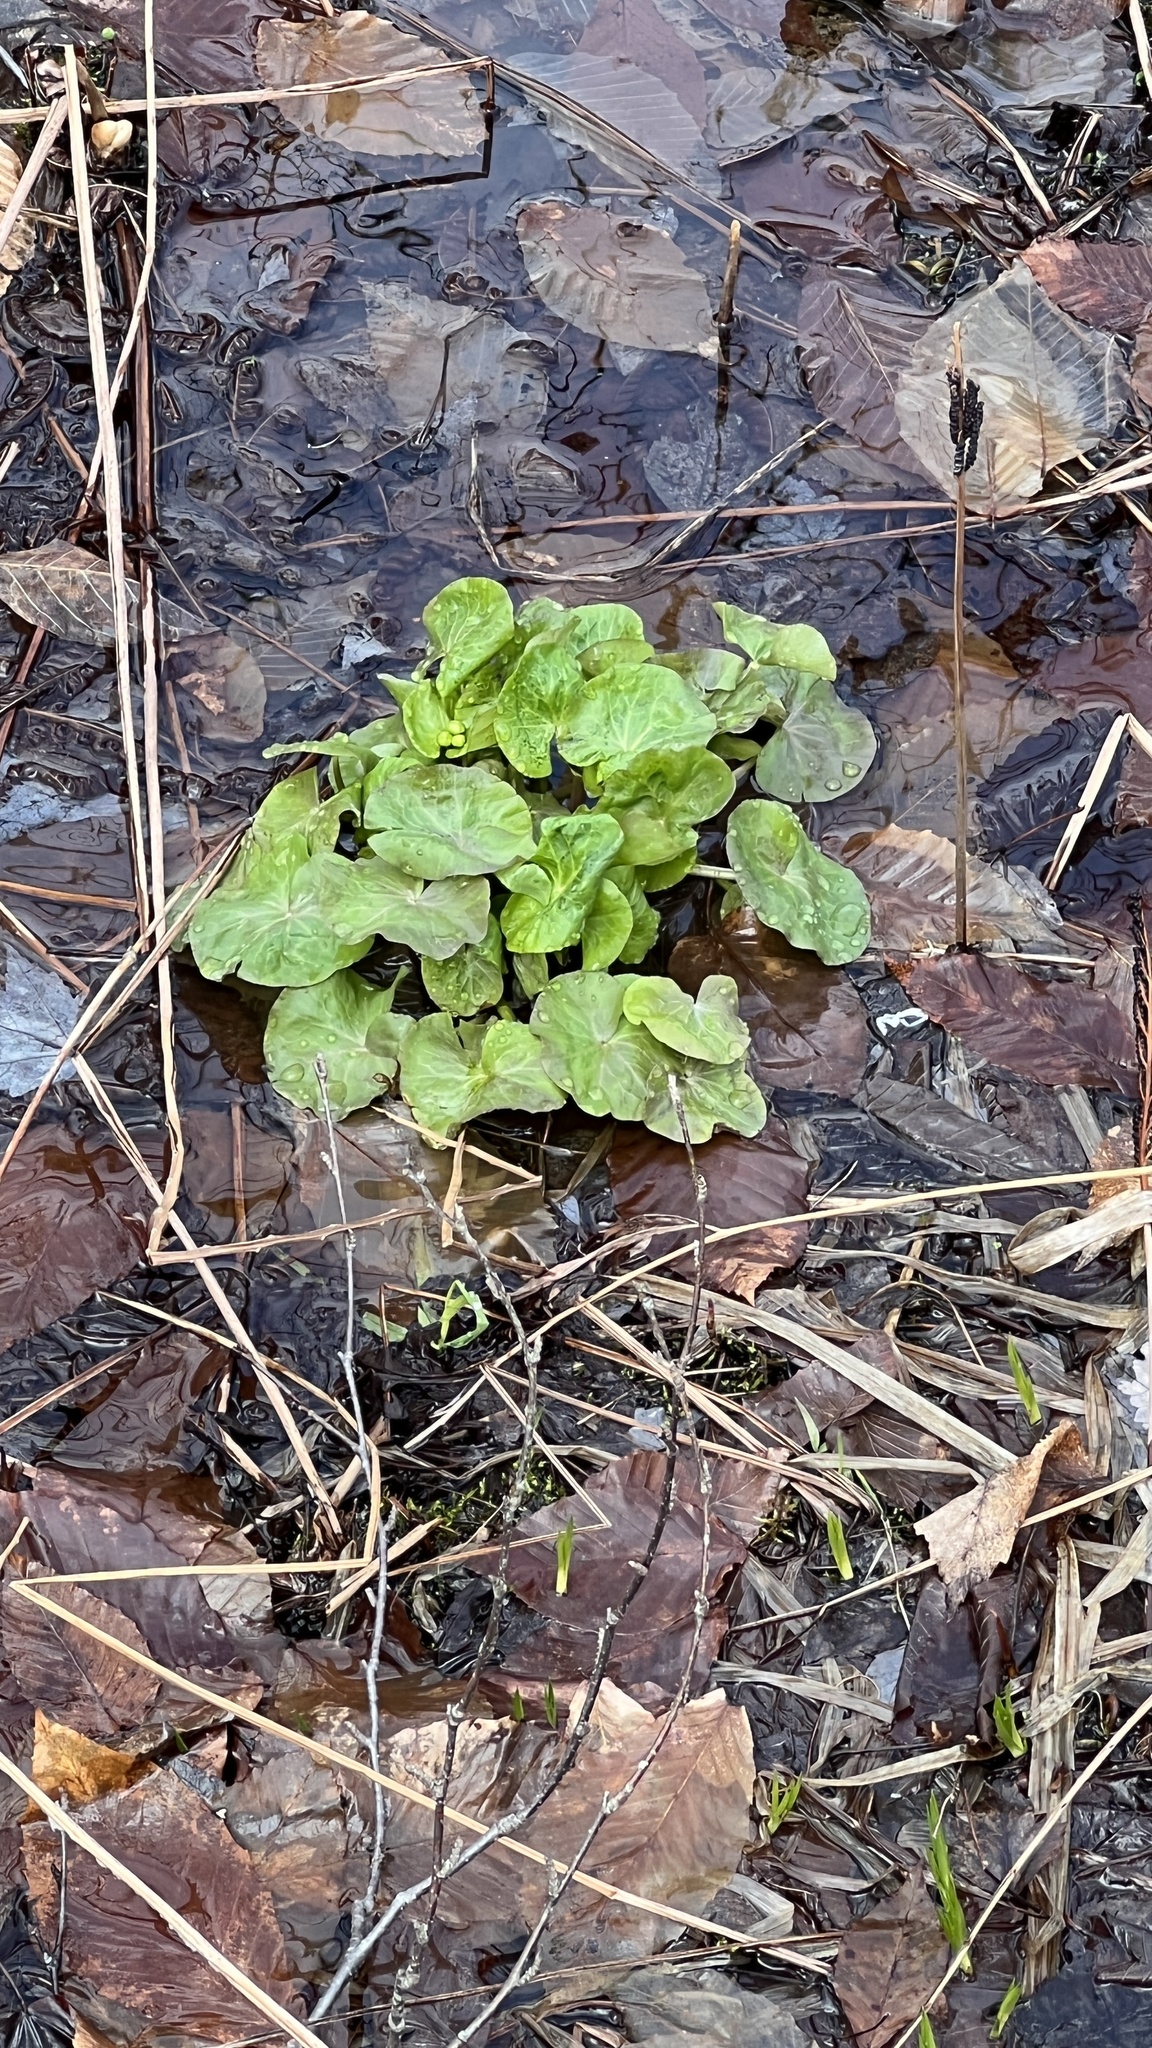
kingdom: Plantae
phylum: Tracheophyta
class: Magnoliopsida
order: Ranunculales
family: Ranunculaceae
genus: Caltha
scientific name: Caltha palustris
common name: Marsh marigold
